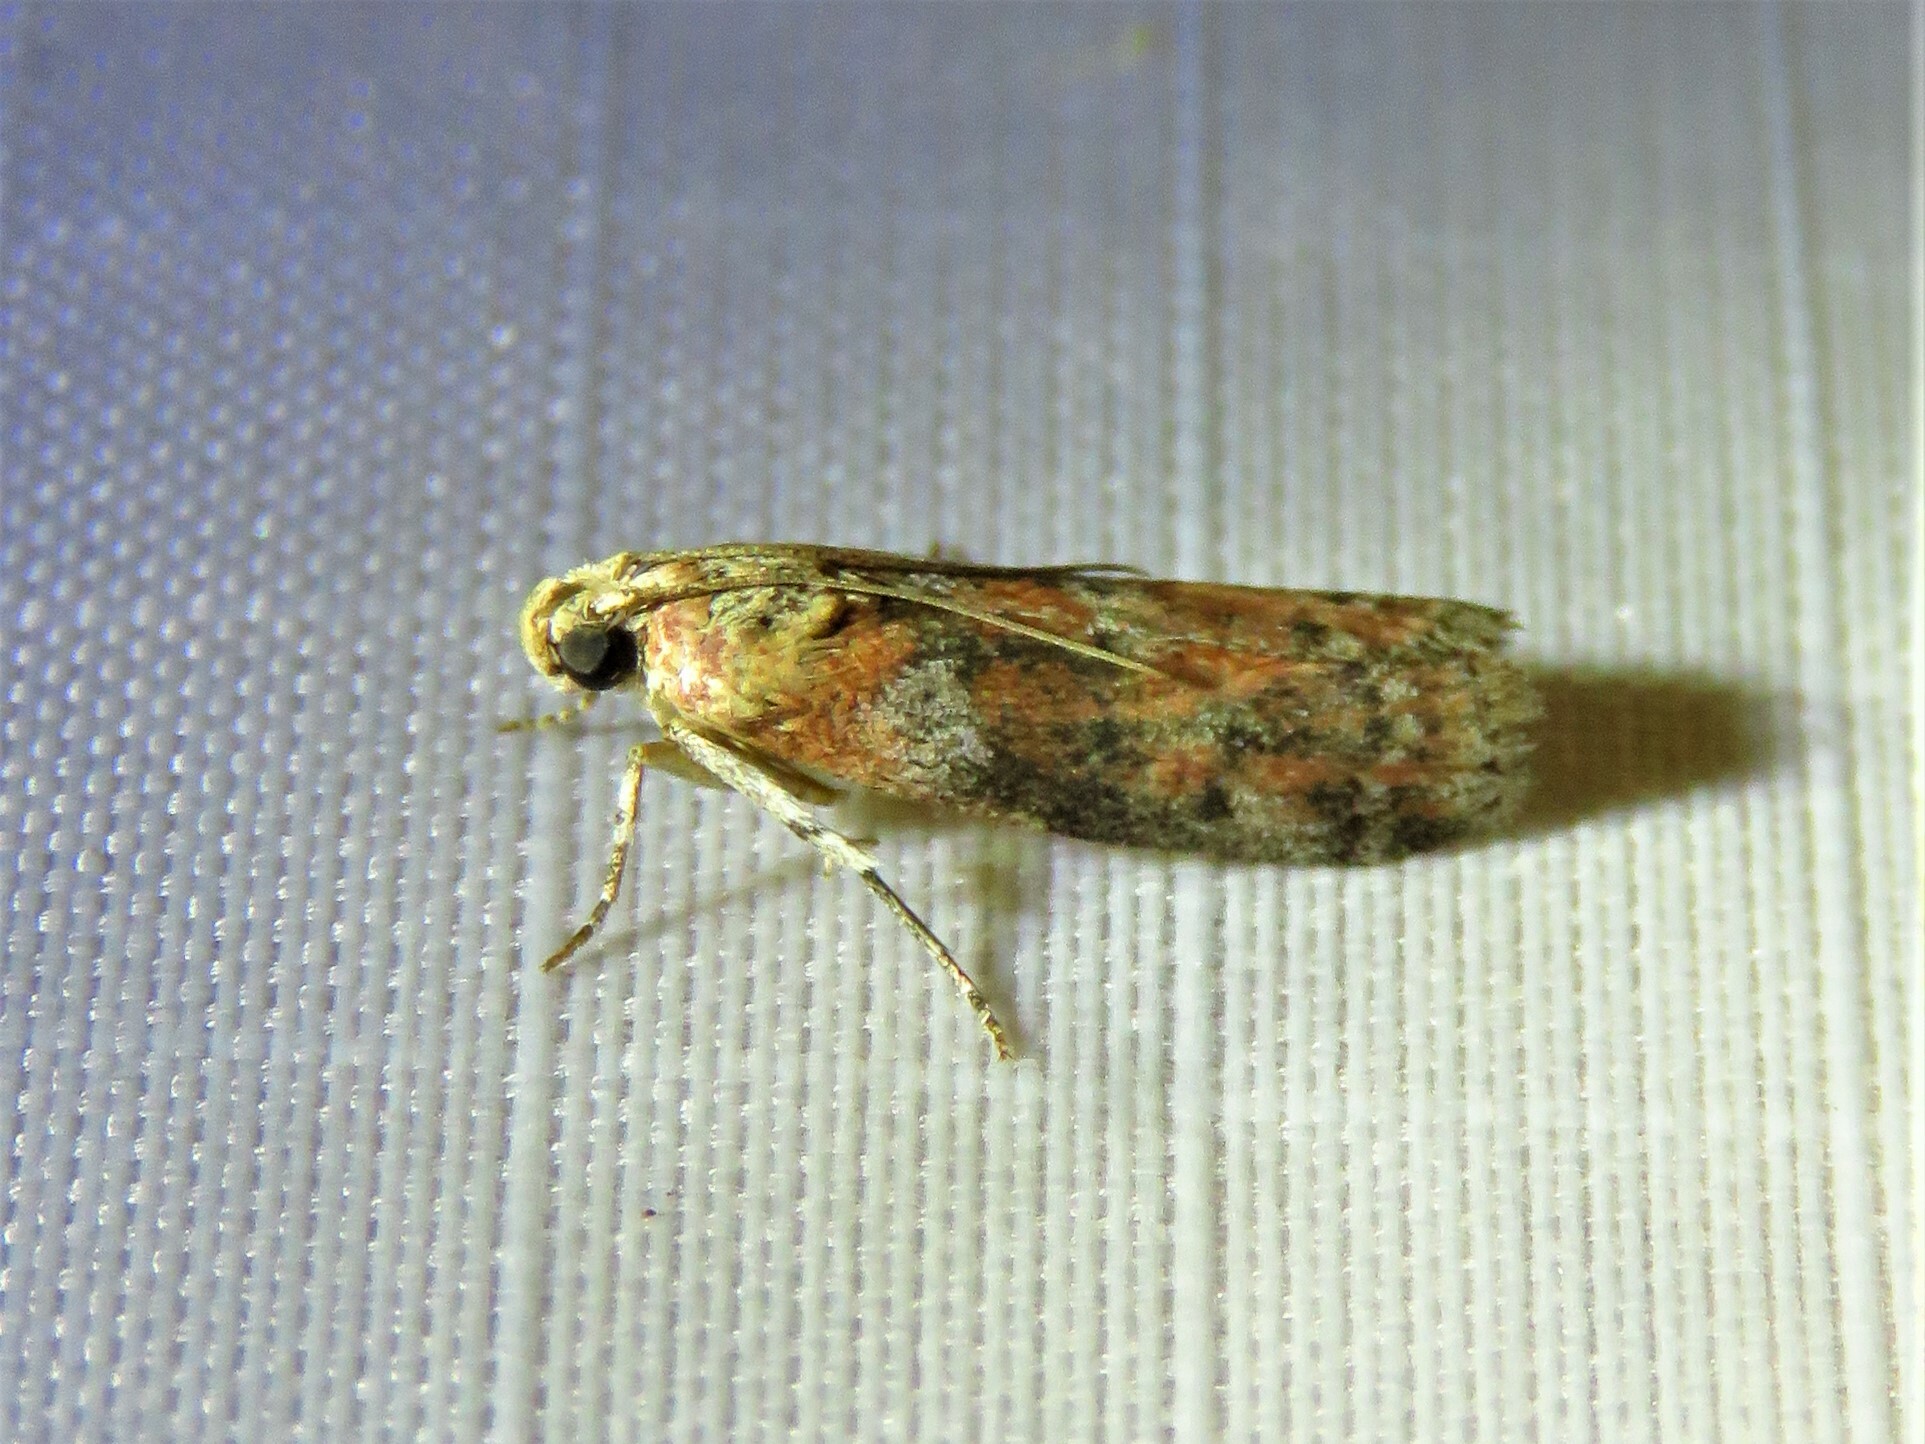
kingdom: Animalia
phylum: Arthropoda
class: Insecta
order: Lepidoptera
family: Pyralidae
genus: Sciota
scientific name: Sciota
